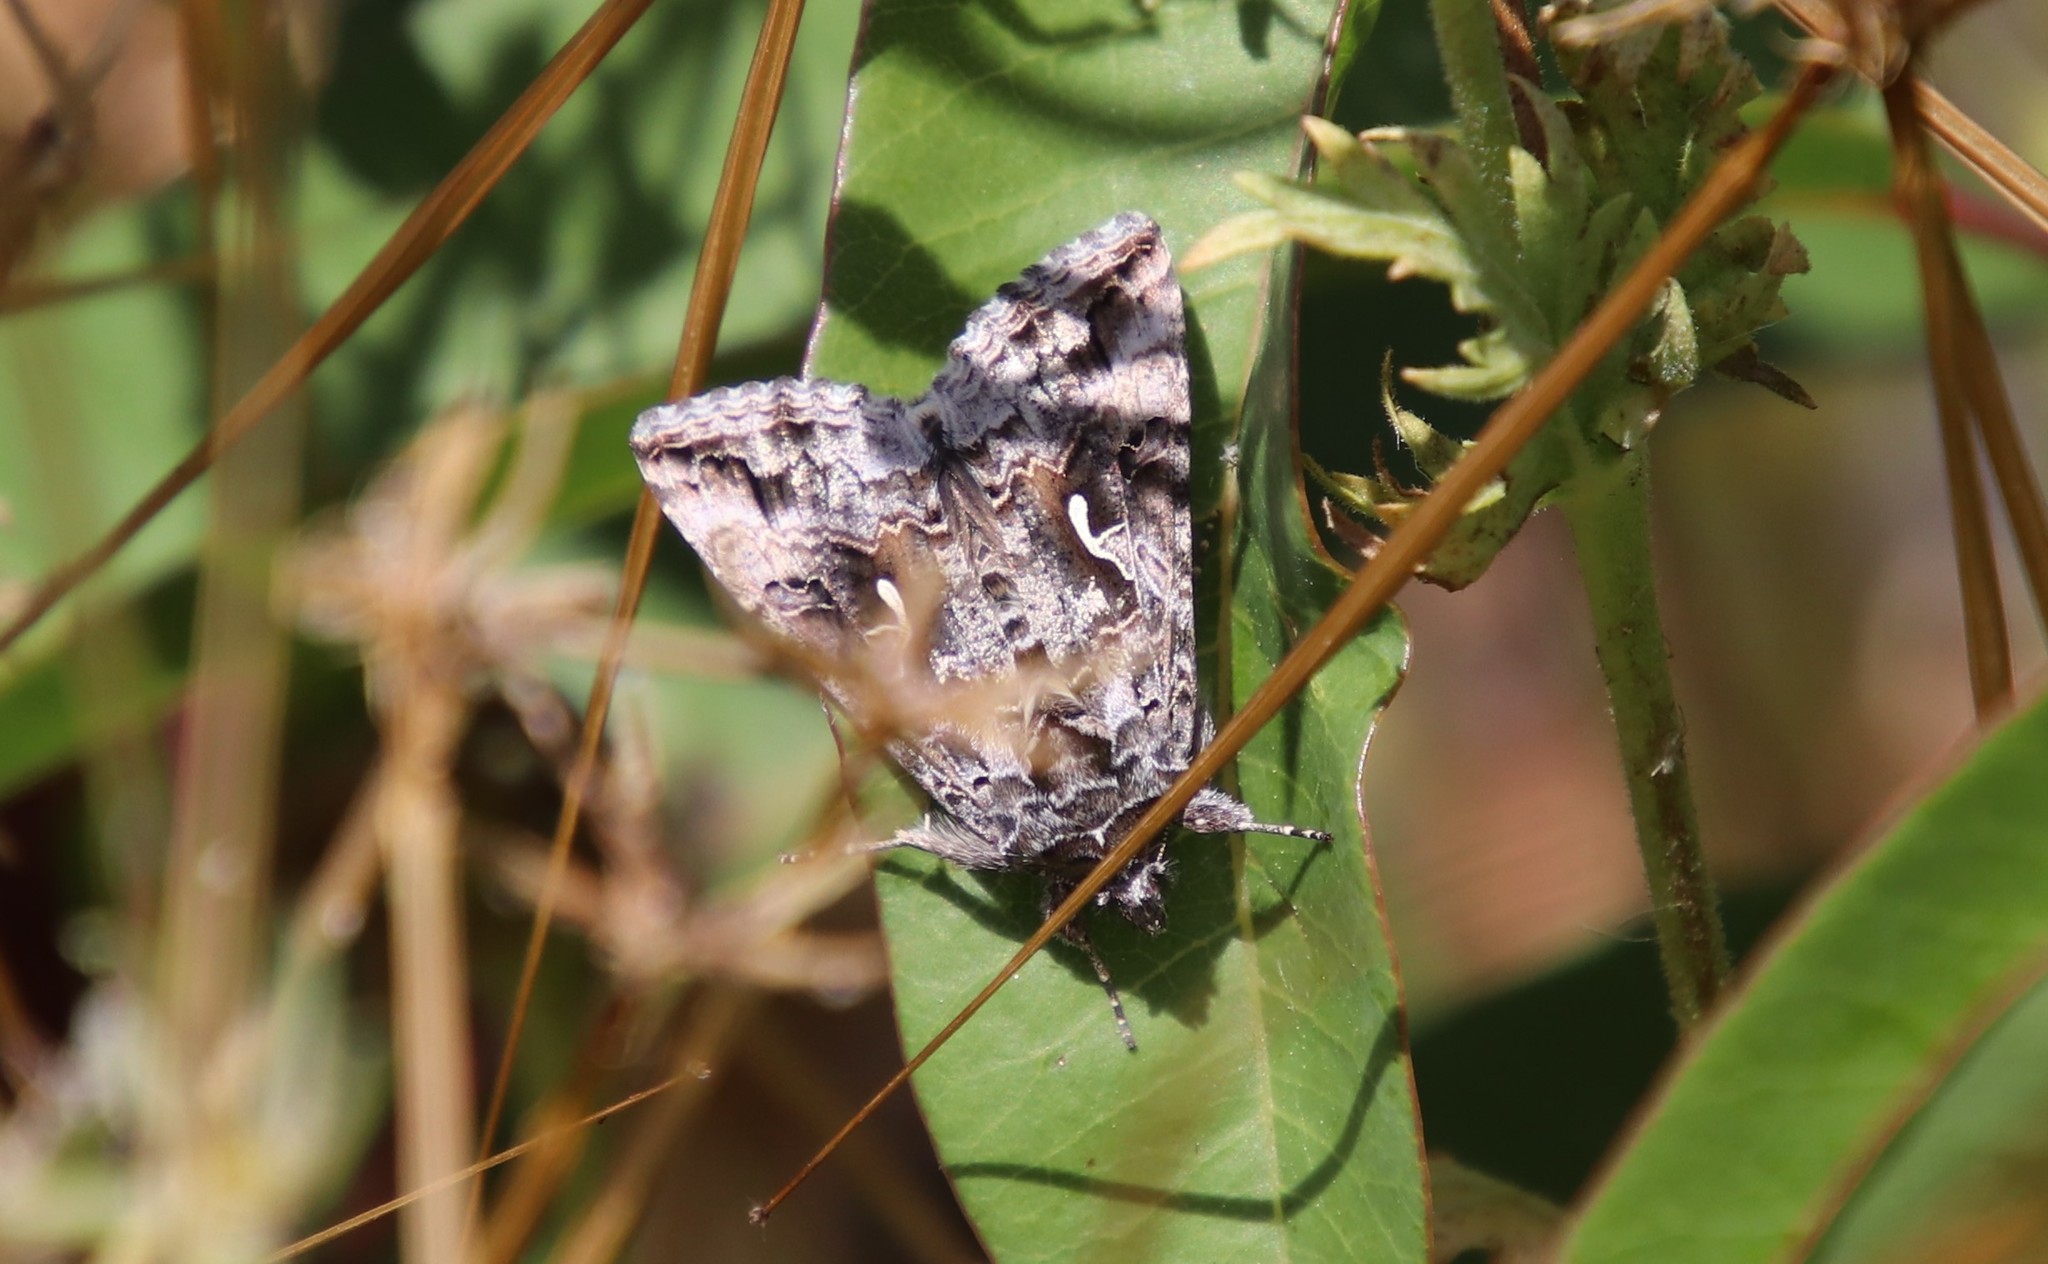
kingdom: Animalia
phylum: Arthropoda
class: Insecta
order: Lepidoptera
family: Noctuidae
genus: Autographa
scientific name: Autographa californica
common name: Alfalfa looper
